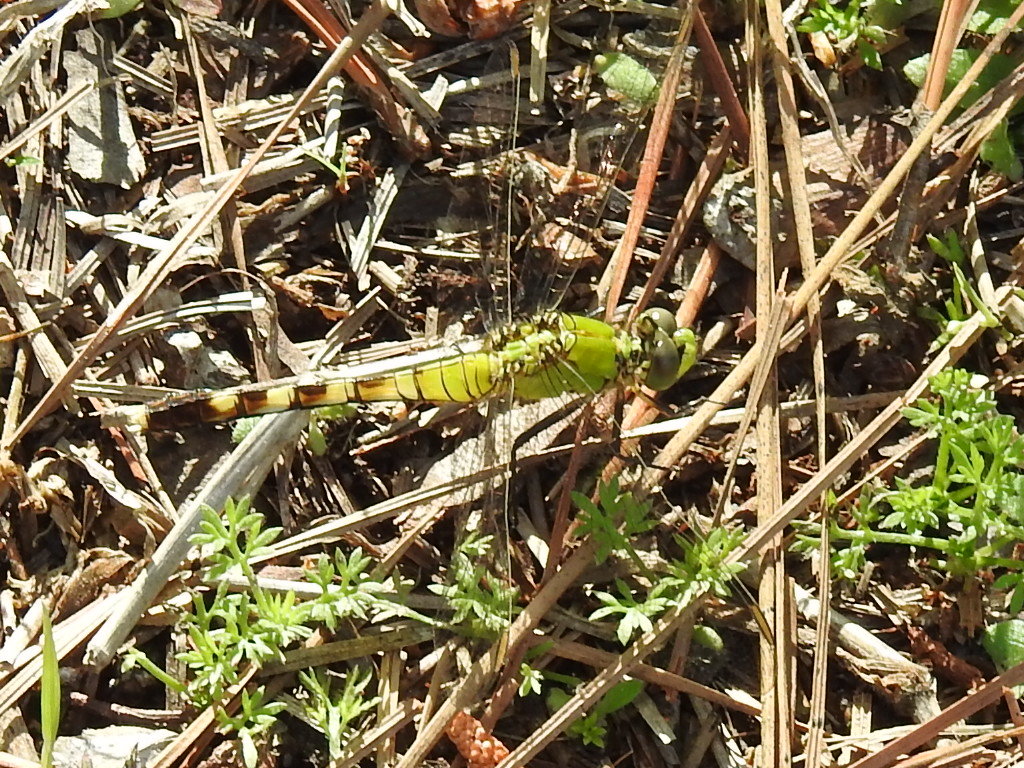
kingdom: Animalia
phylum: Arthropoda
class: Insecta
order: Odonata
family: Libellulidae
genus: Erythemis
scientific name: Erythemis simplicicollis
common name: Eastern pondhawk
